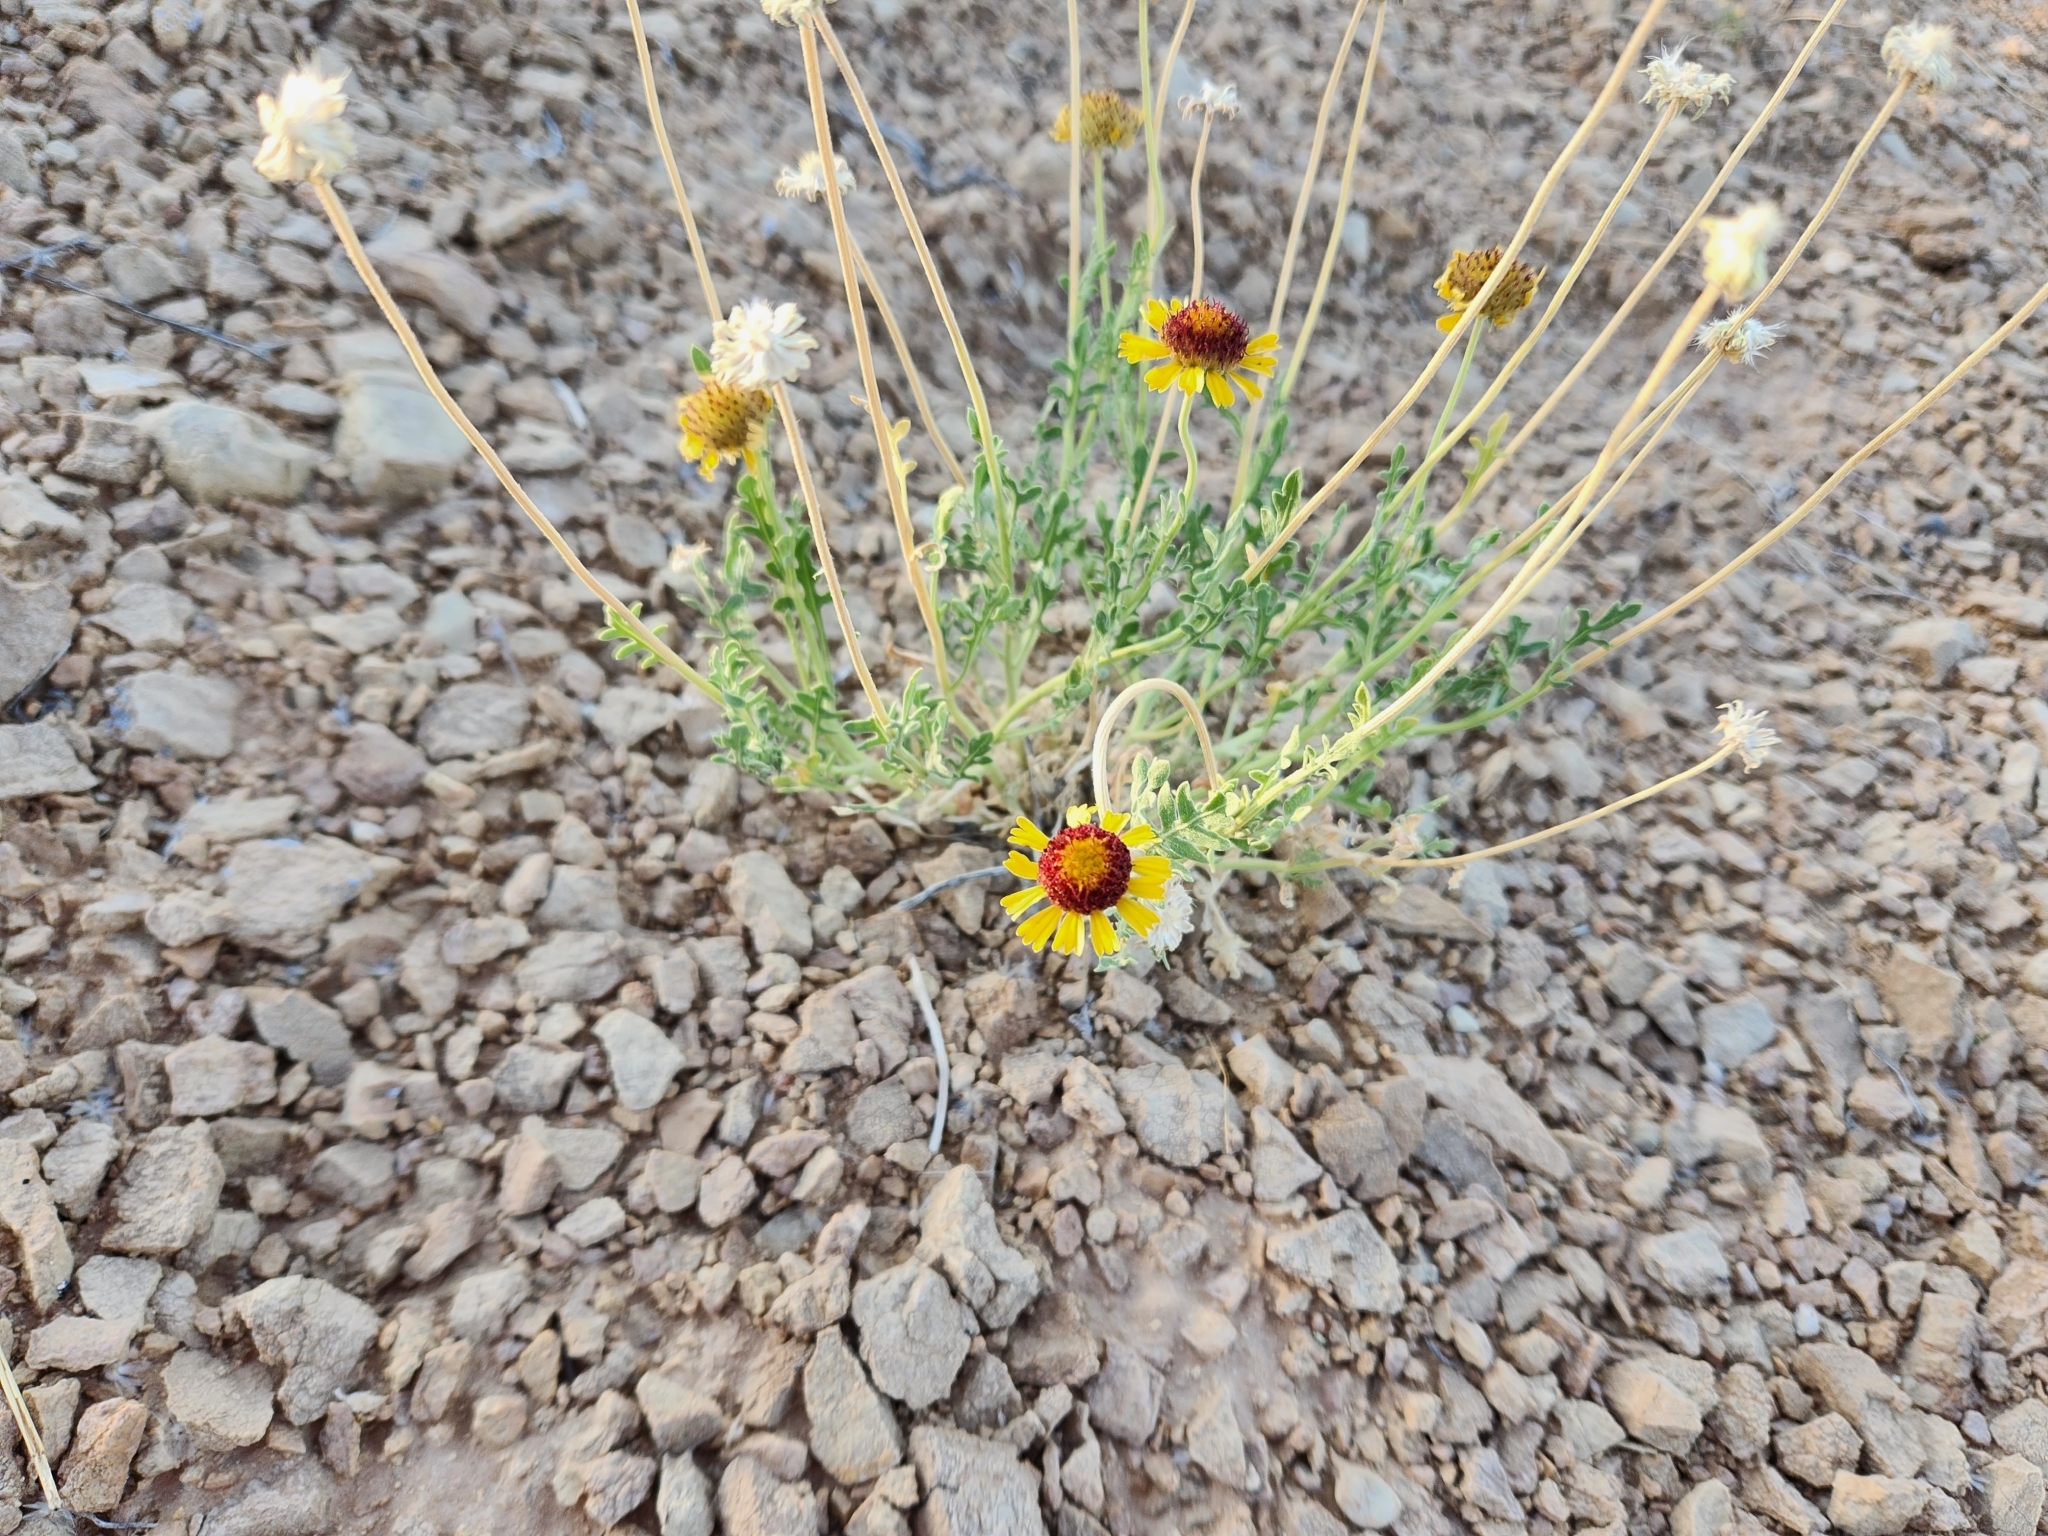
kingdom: Plantae
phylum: Tracheophyta
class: Magnoliopsida
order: Asterales
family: Asteraceae
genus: Gaillardia
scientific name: Gaillardia pinnatifida
